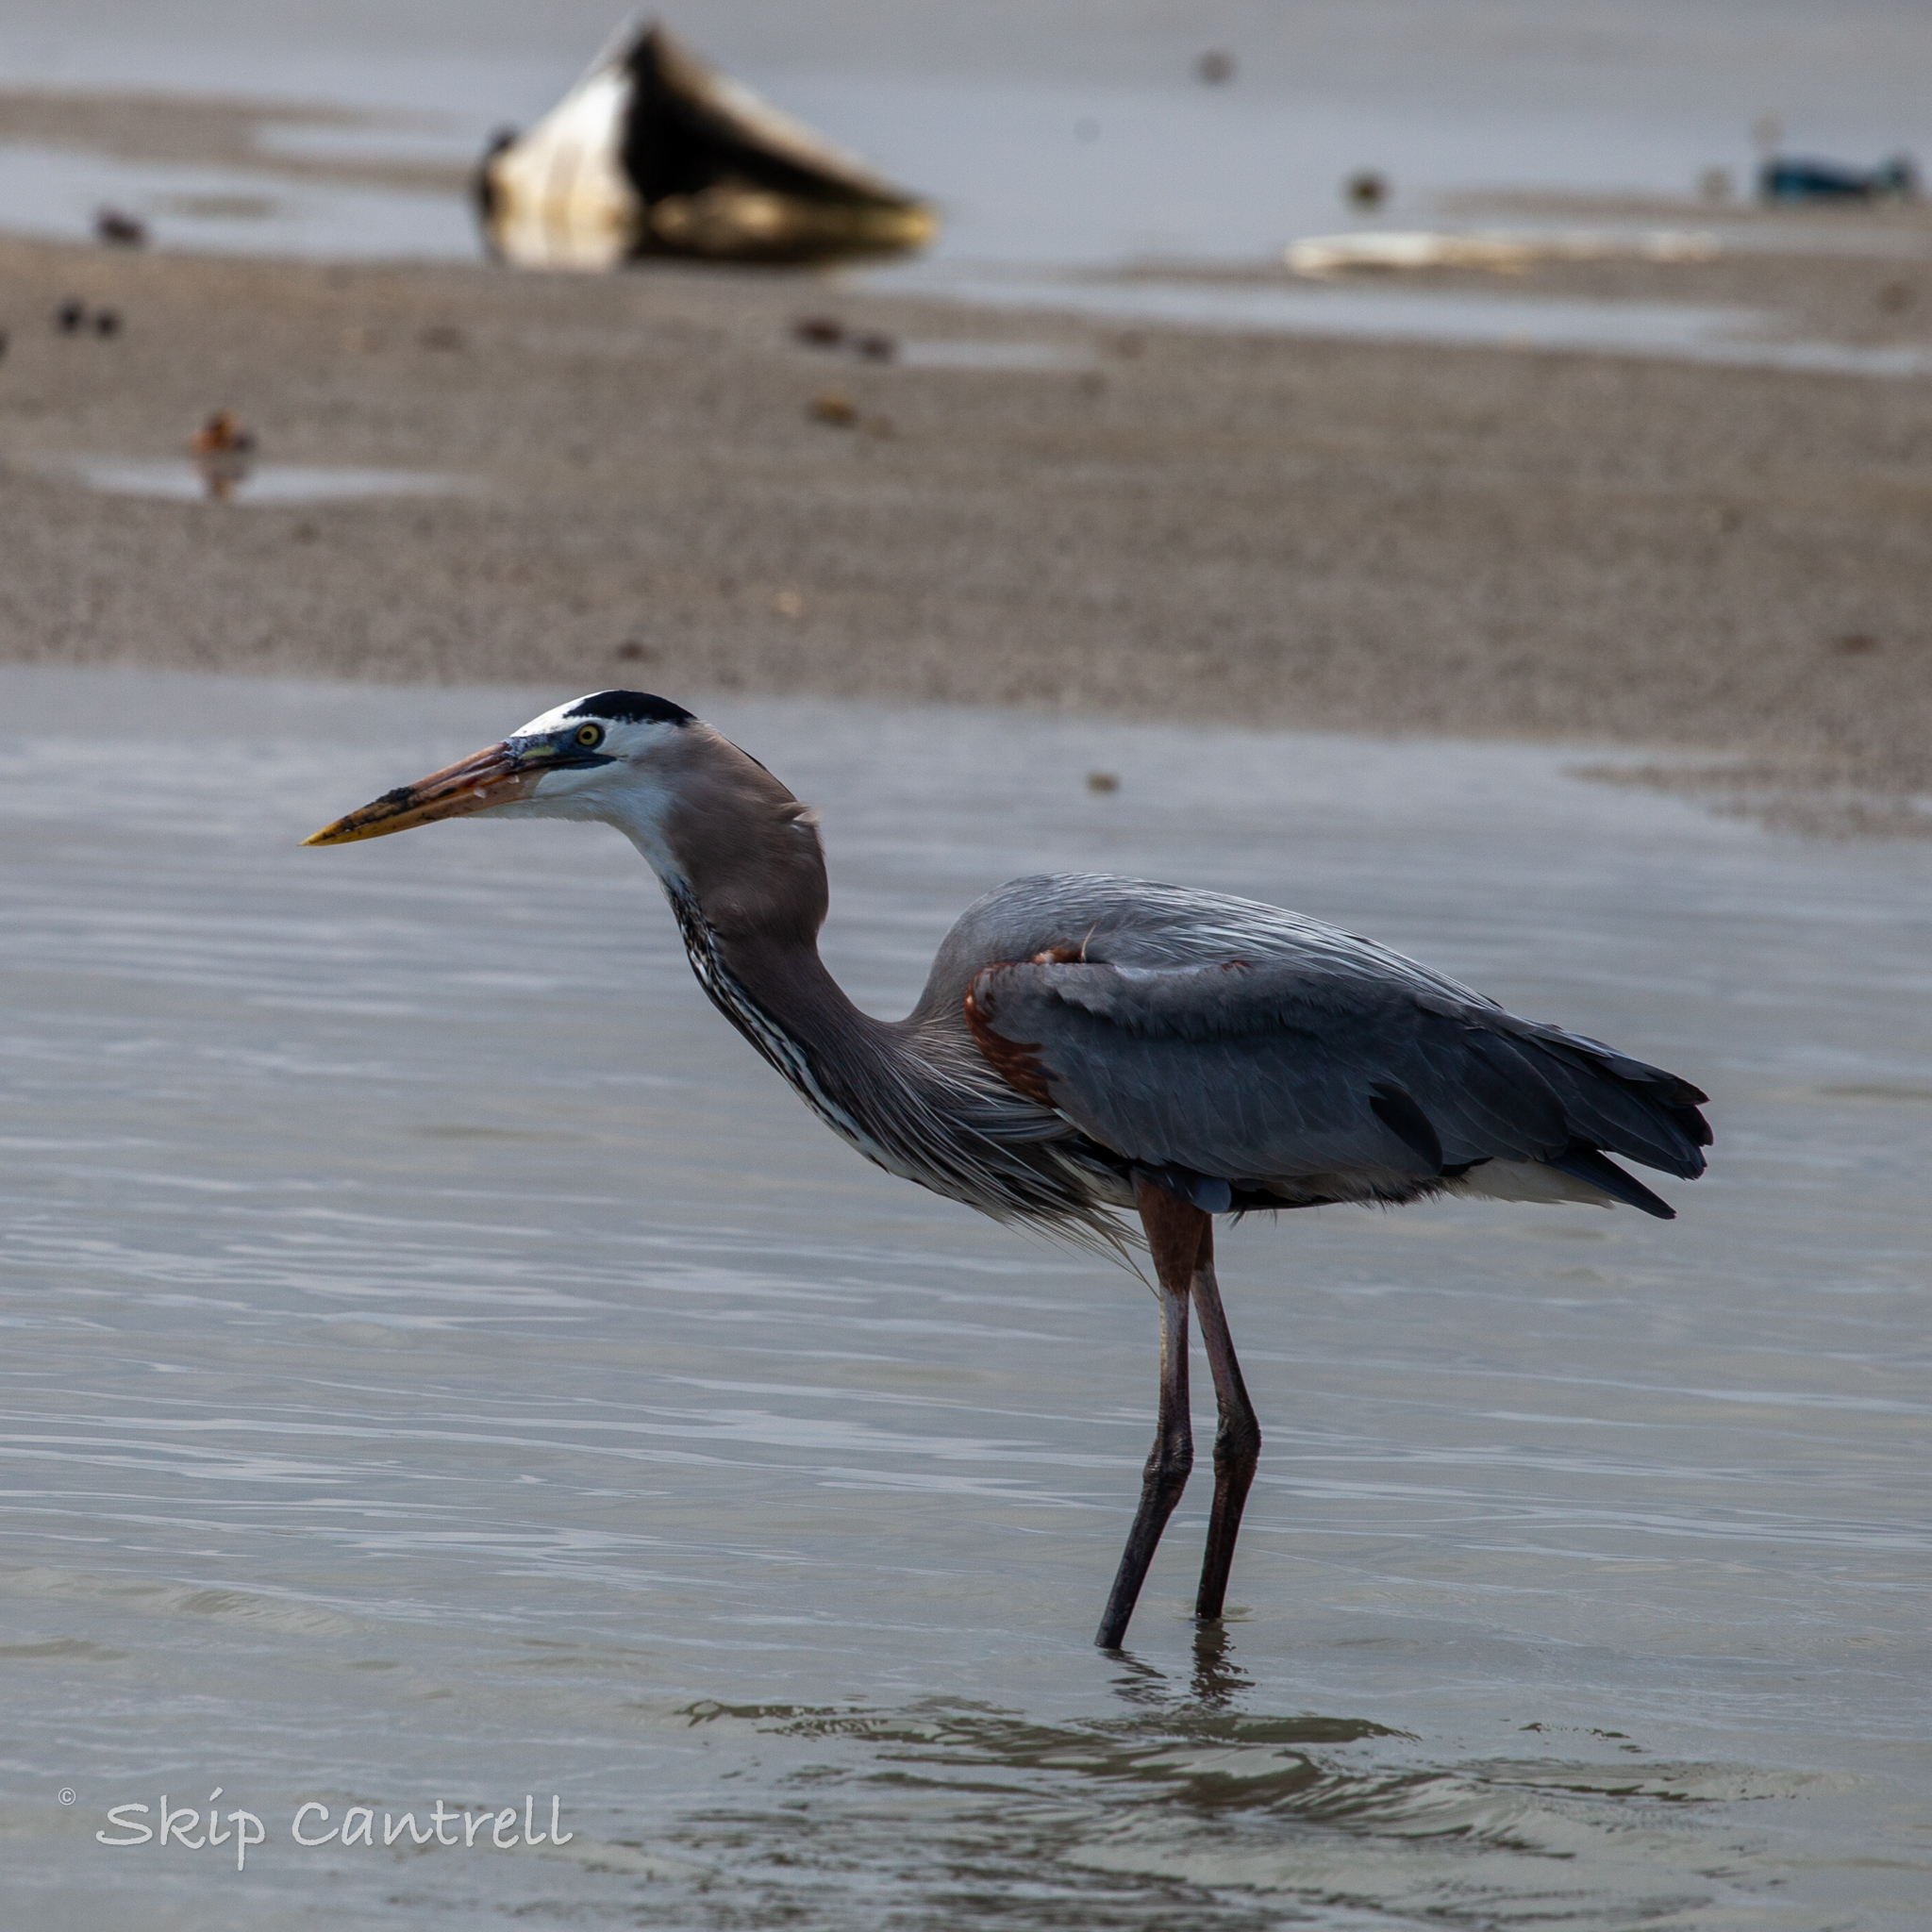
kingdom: Animalia
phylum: Chordata
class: Aves
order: Pelecaniformes
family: Ardeidae
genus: Ardea
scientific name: Ardea herodias
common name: Great blue heron
